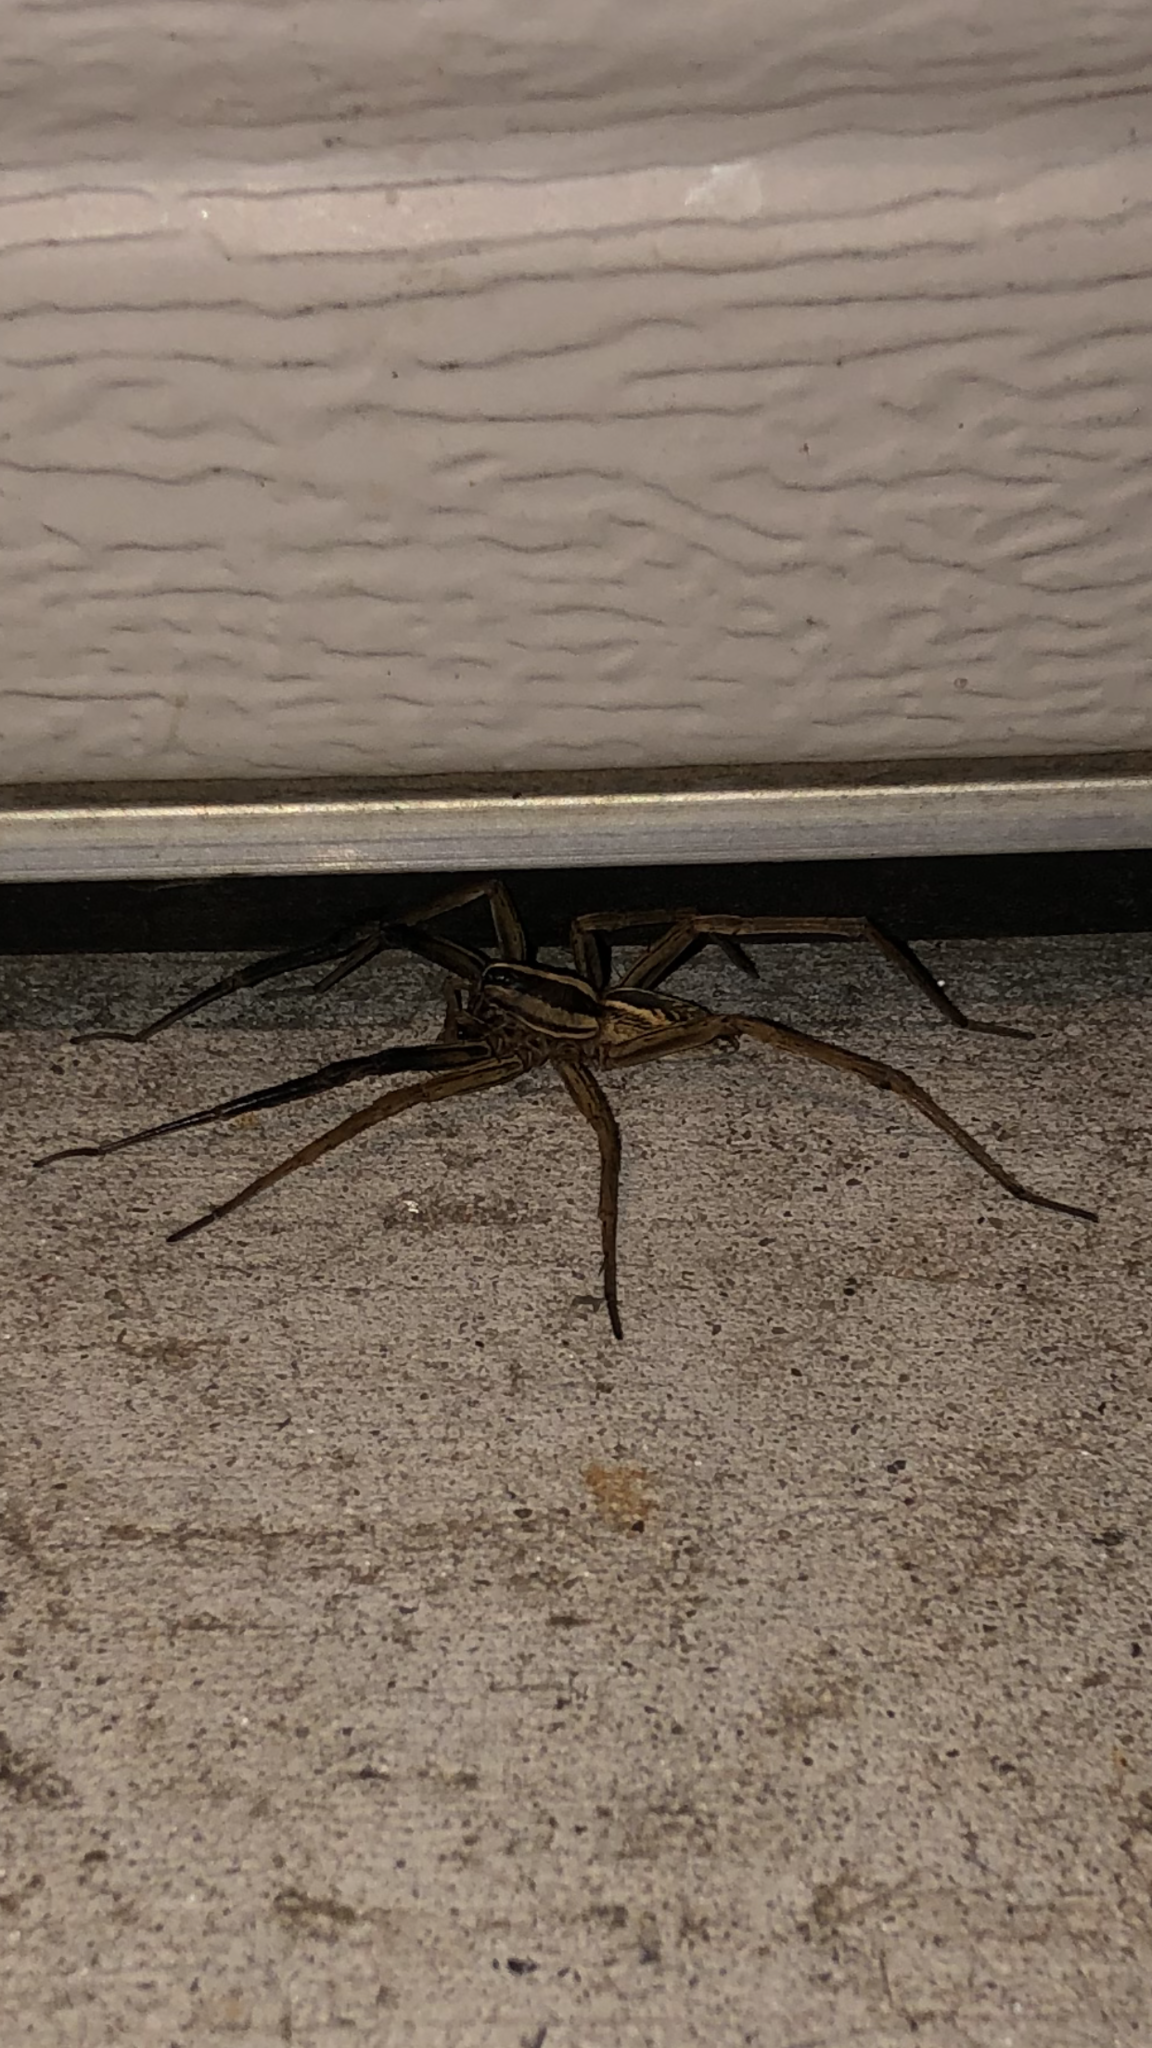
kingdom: Animalia
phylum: Arthropoda
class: Arachnida
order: Araneae
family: Lycosidae
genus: Rabidosa
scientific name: Rabidosa rabida
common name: Rabid wolf spider
